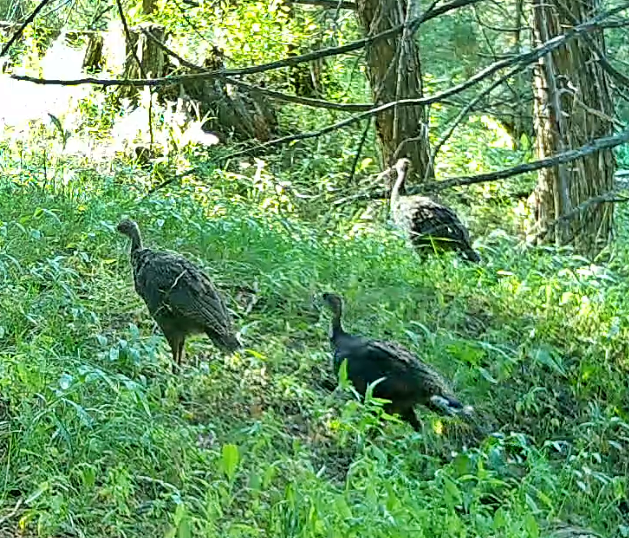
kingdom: Animalia
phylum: Chordata
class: Aves
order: Galliformes
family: Phasianidae
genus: Meleagris
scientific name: Meleagris gallopavo
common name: Wild turkey
